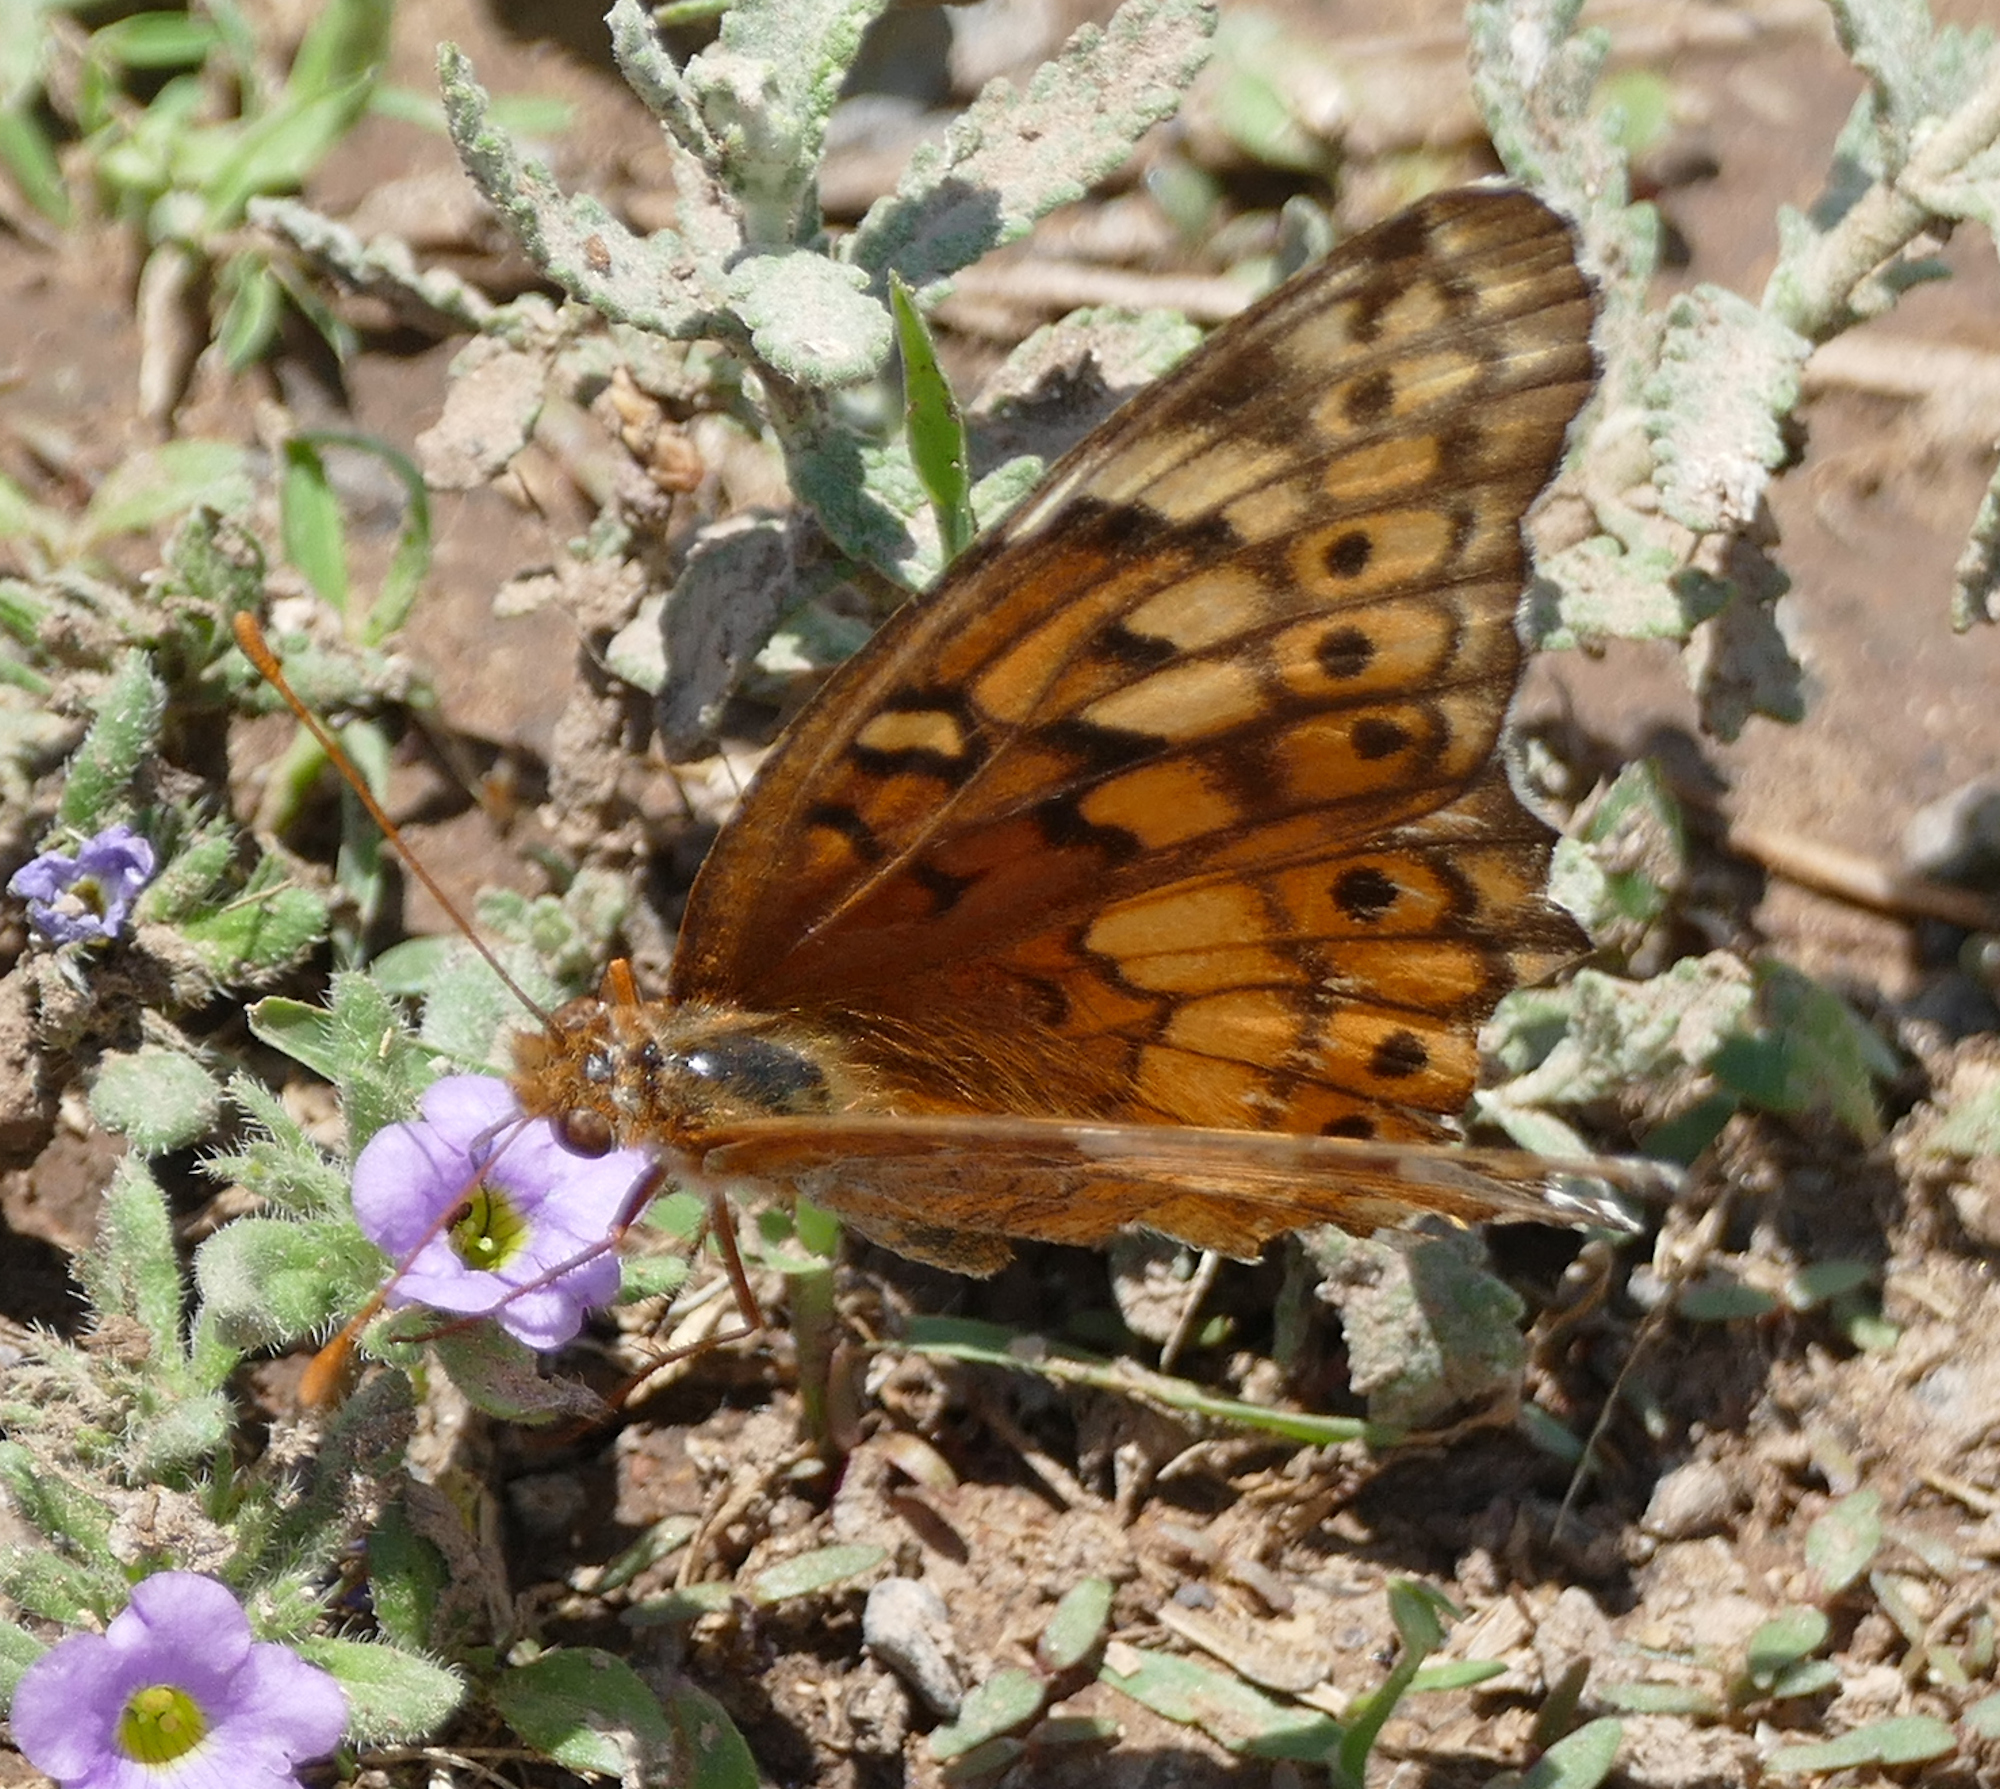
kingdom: Animalia
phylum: Arthropoda
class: Insecta
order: Lepidoptera
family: Nymphalidae
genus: Euptoieta
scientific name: Euptoieta claudia
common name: Variegated fritillary
